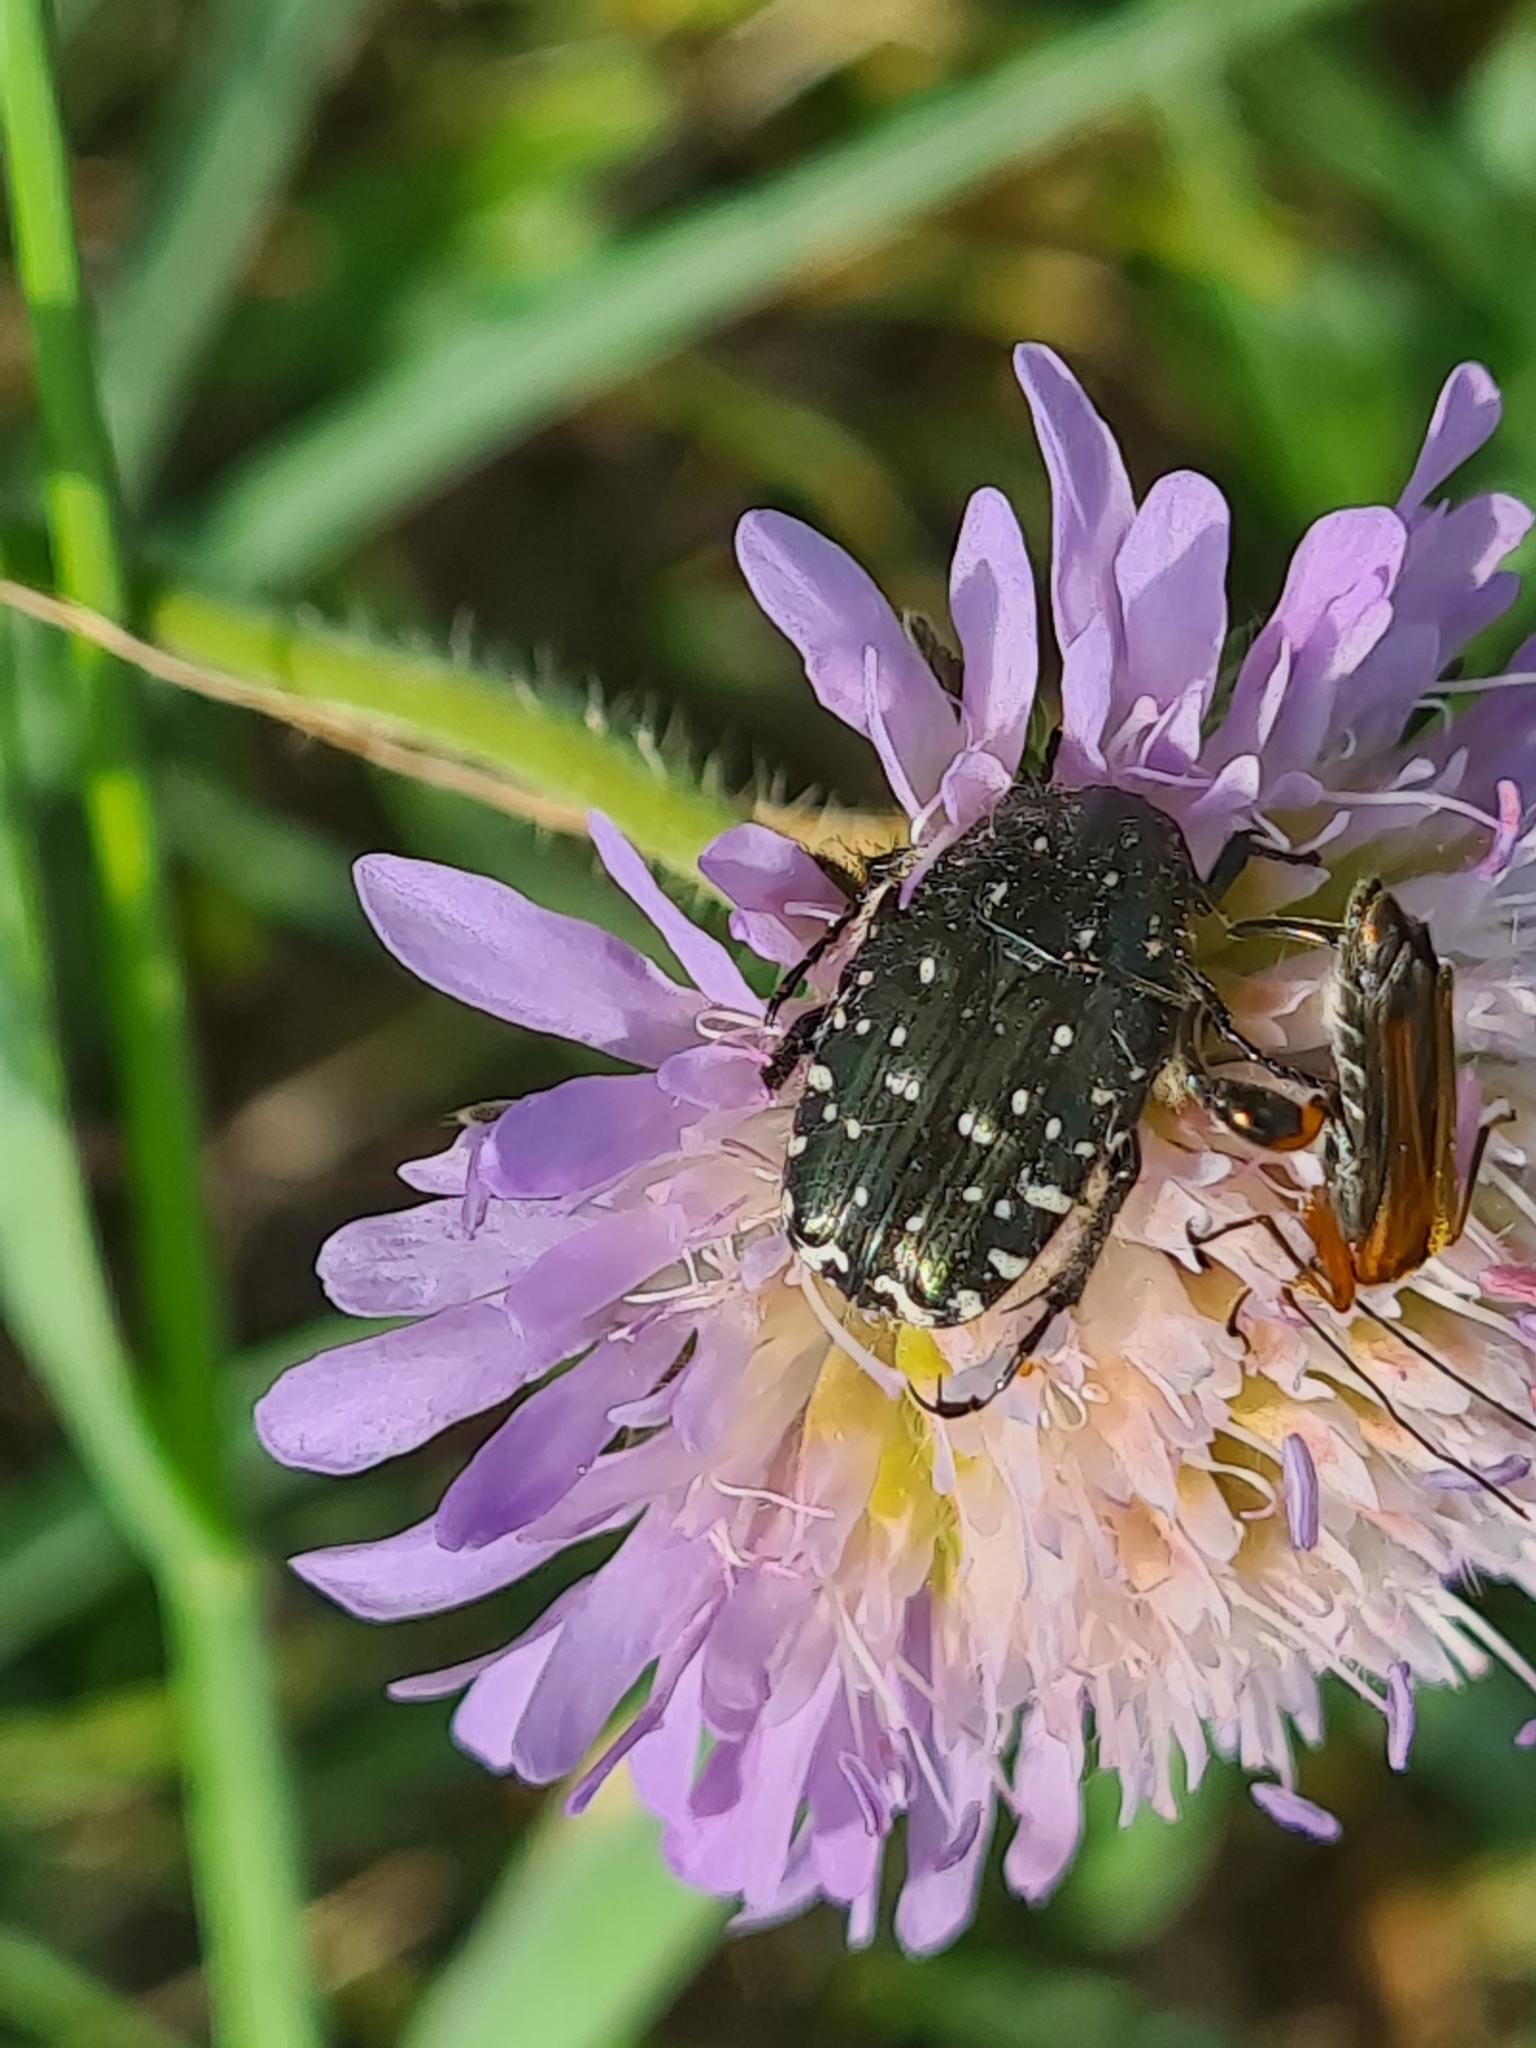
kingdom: Animalia
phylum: Arthropoda
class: Insecta
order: Coleoptera
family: Scarabaeidae
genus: Oxythyrea
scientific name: Oxythyrea funesta
